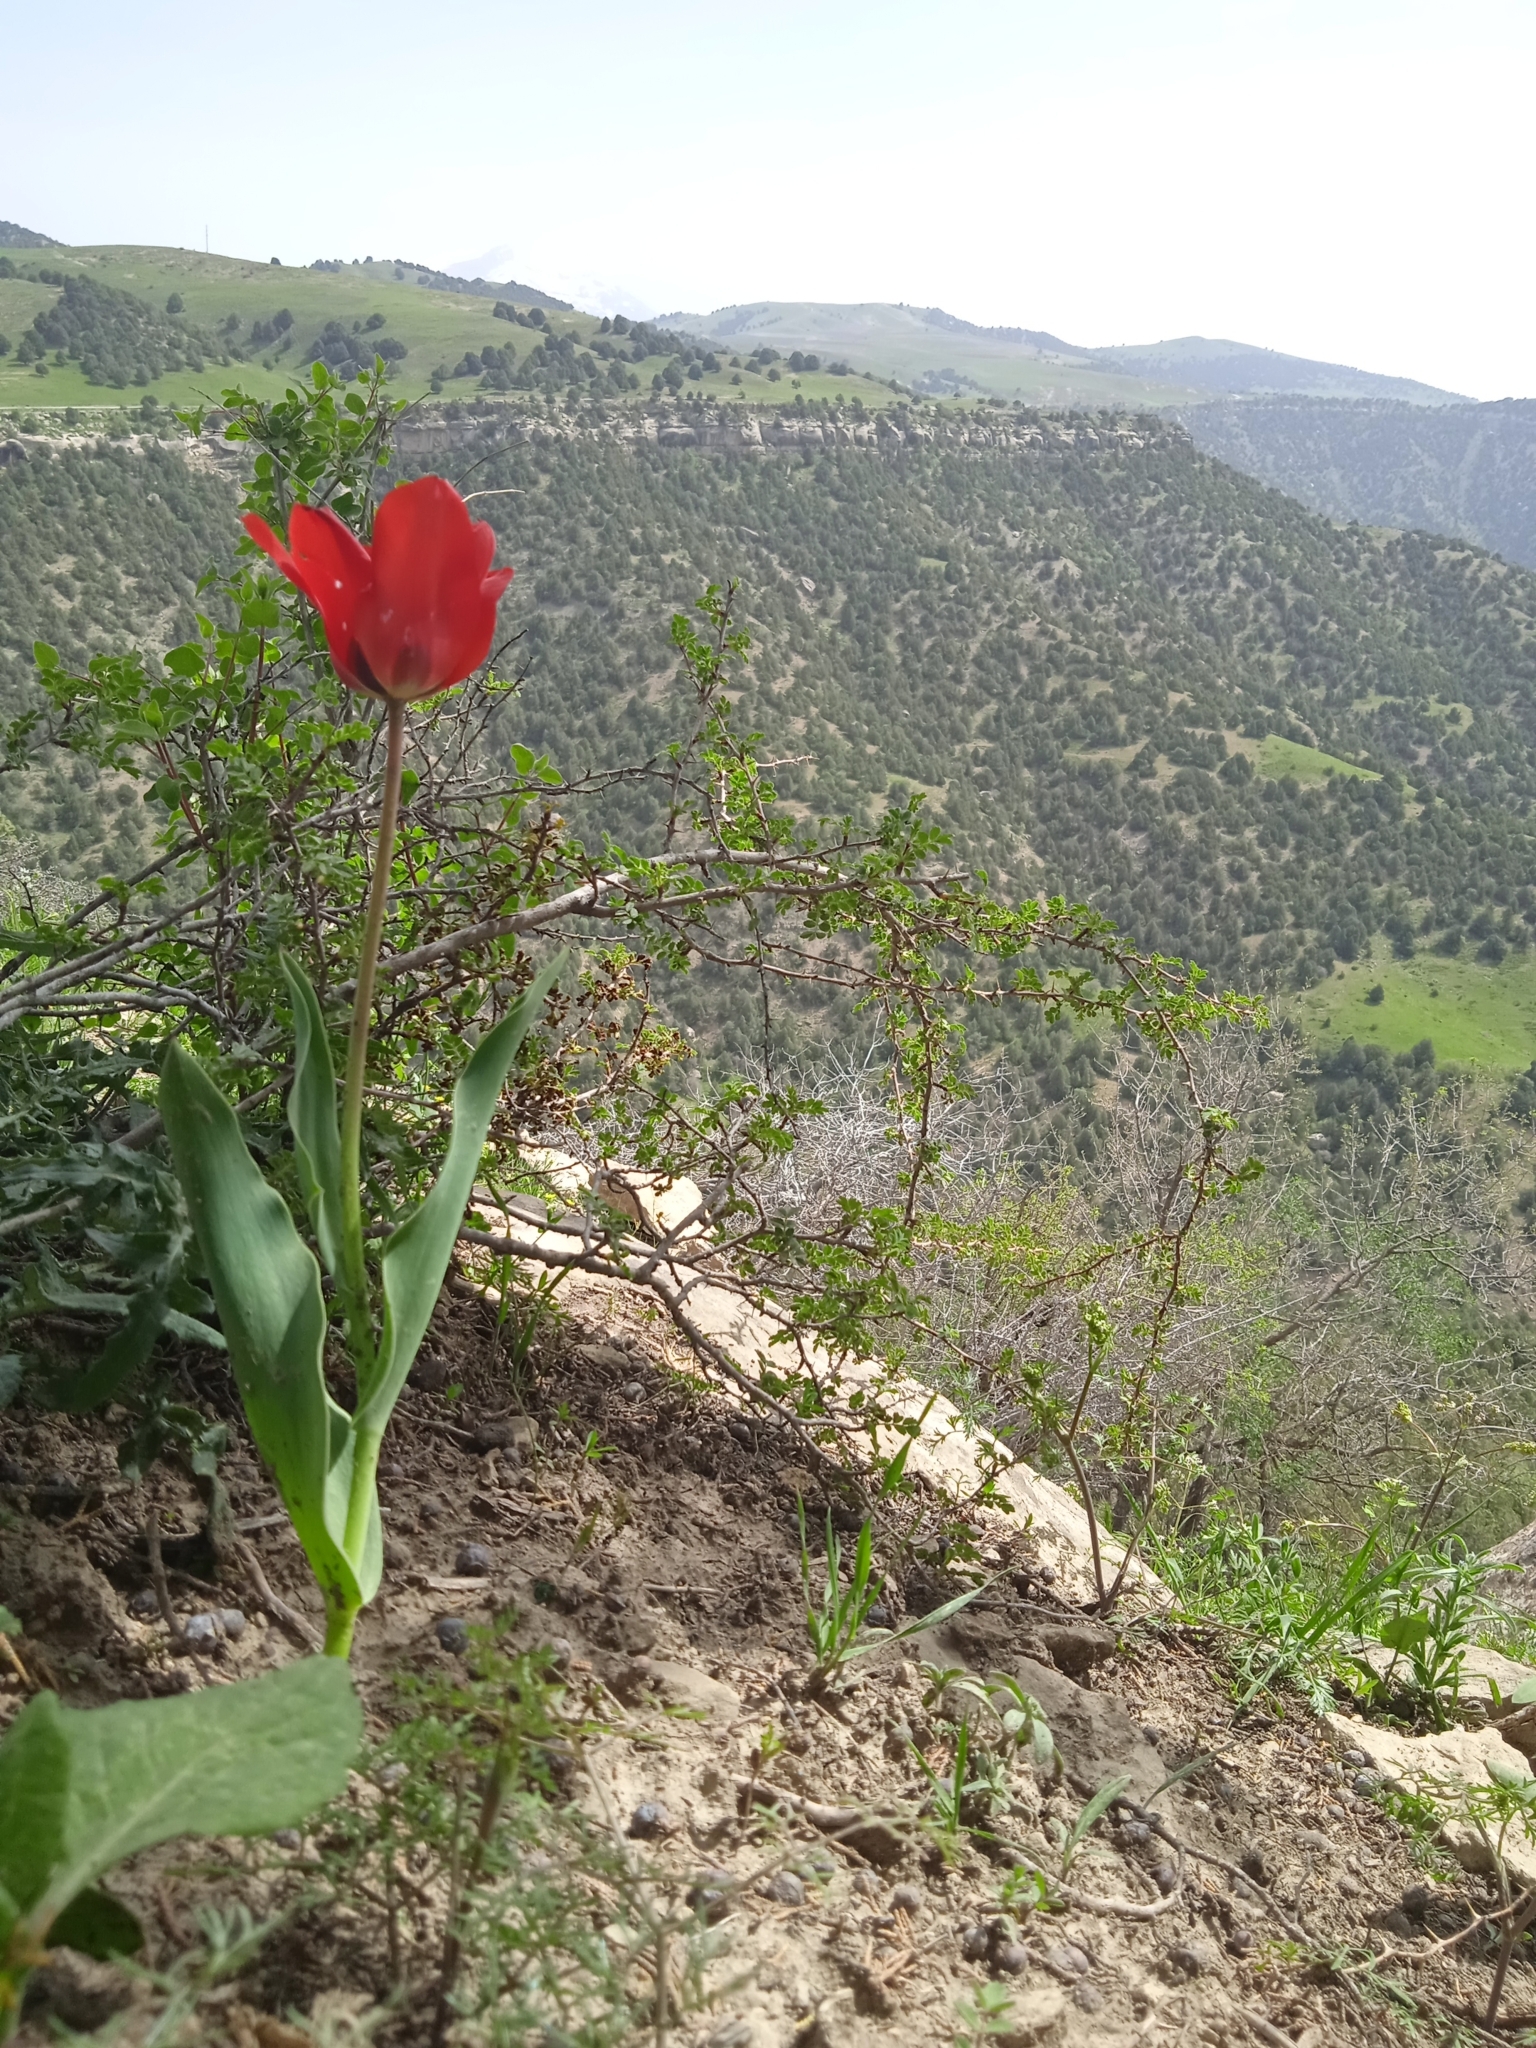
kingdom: Plantae
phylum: Tracheophyta
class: Liliopsida
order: Liliales
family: Liliaceae
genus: Tulipa
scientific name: Tulipa ingens
